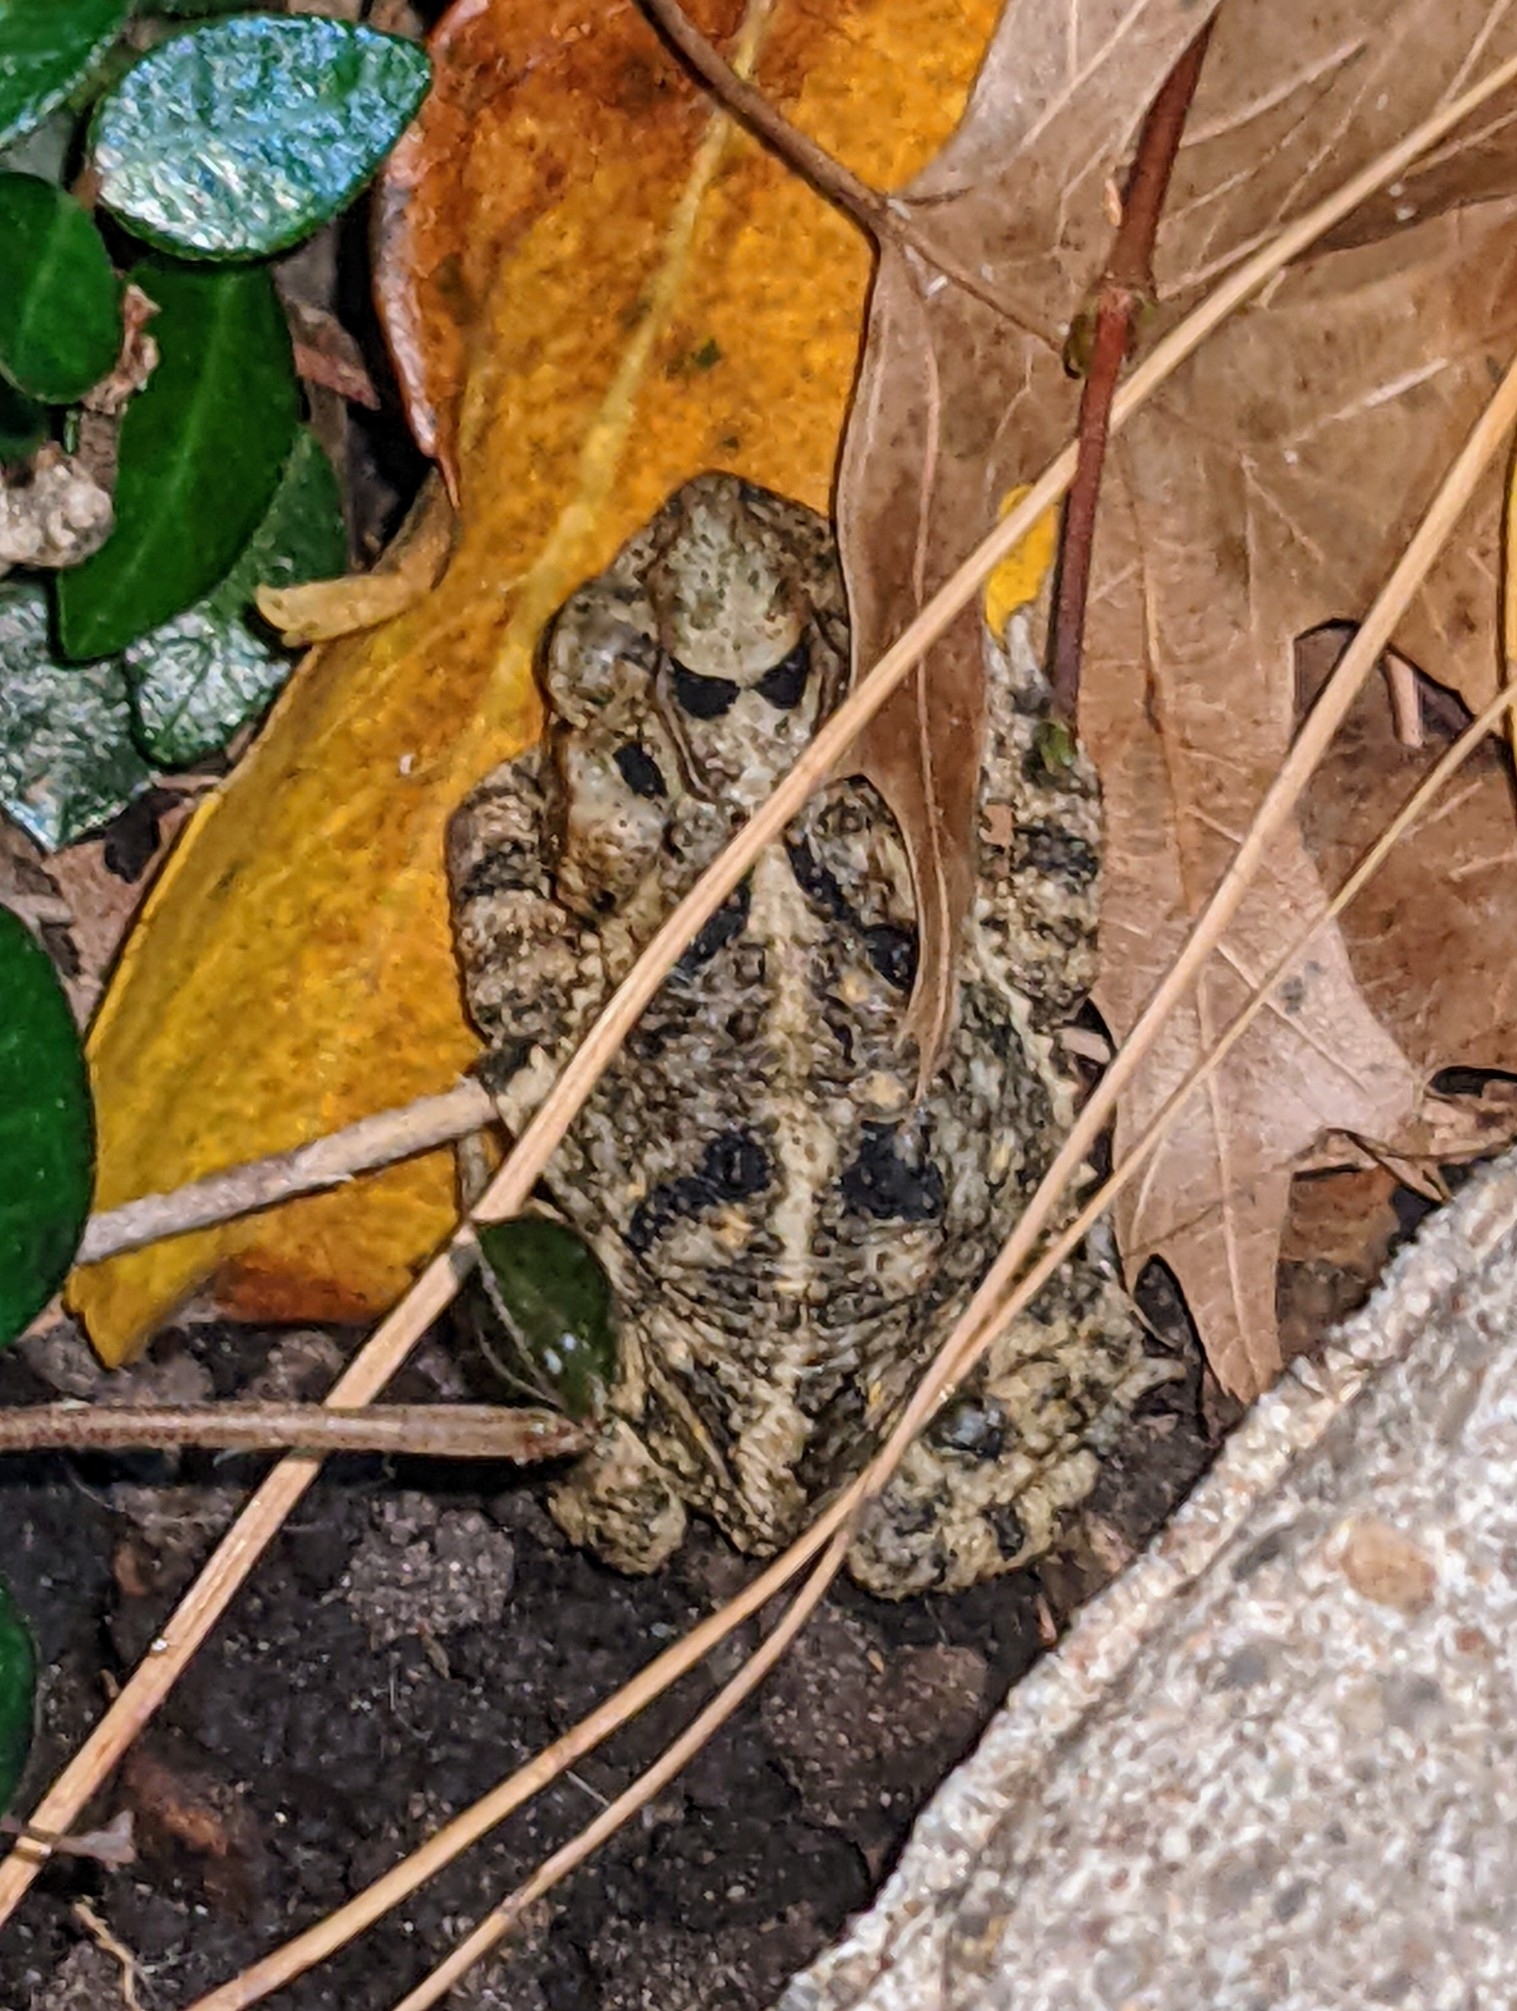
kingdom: Animalia
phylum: Chordata
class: Amphibia
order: Anura
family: Bufonidae
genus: Incilius
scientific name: Incilius nebulifer
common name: Gulf coast toad
